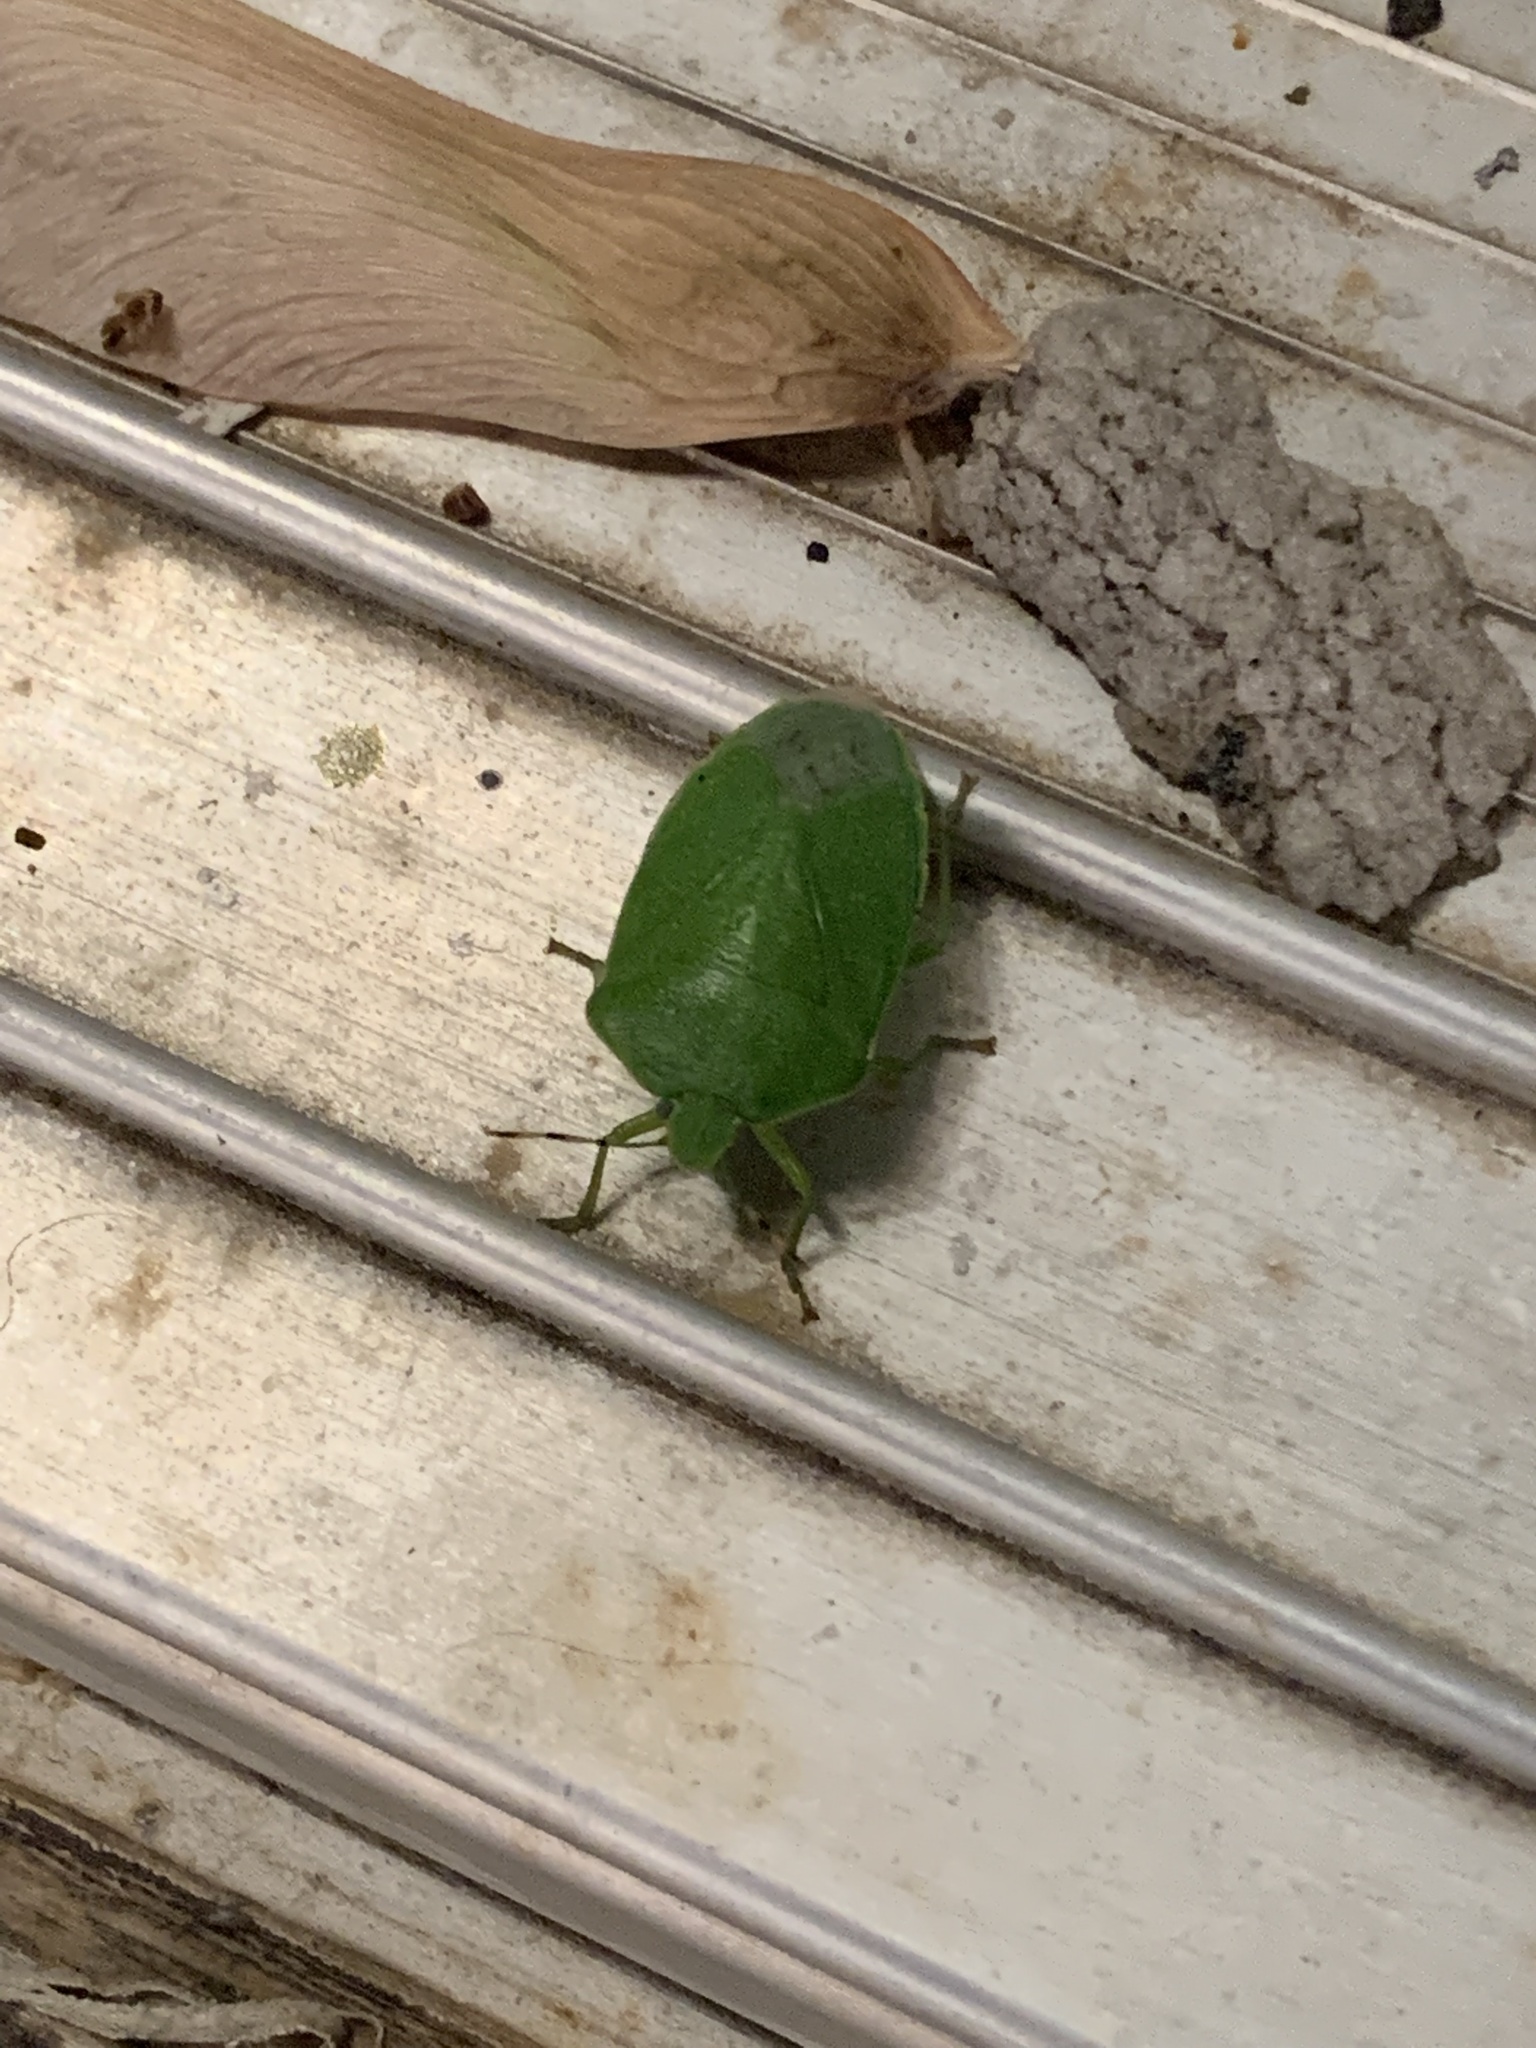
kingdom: Animalia
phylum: Arthropoda
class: Insecta
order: Hemiptera
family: Pentatomidae
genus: Chinavia
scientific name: Chinavia hilaris
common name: Green stink bug
